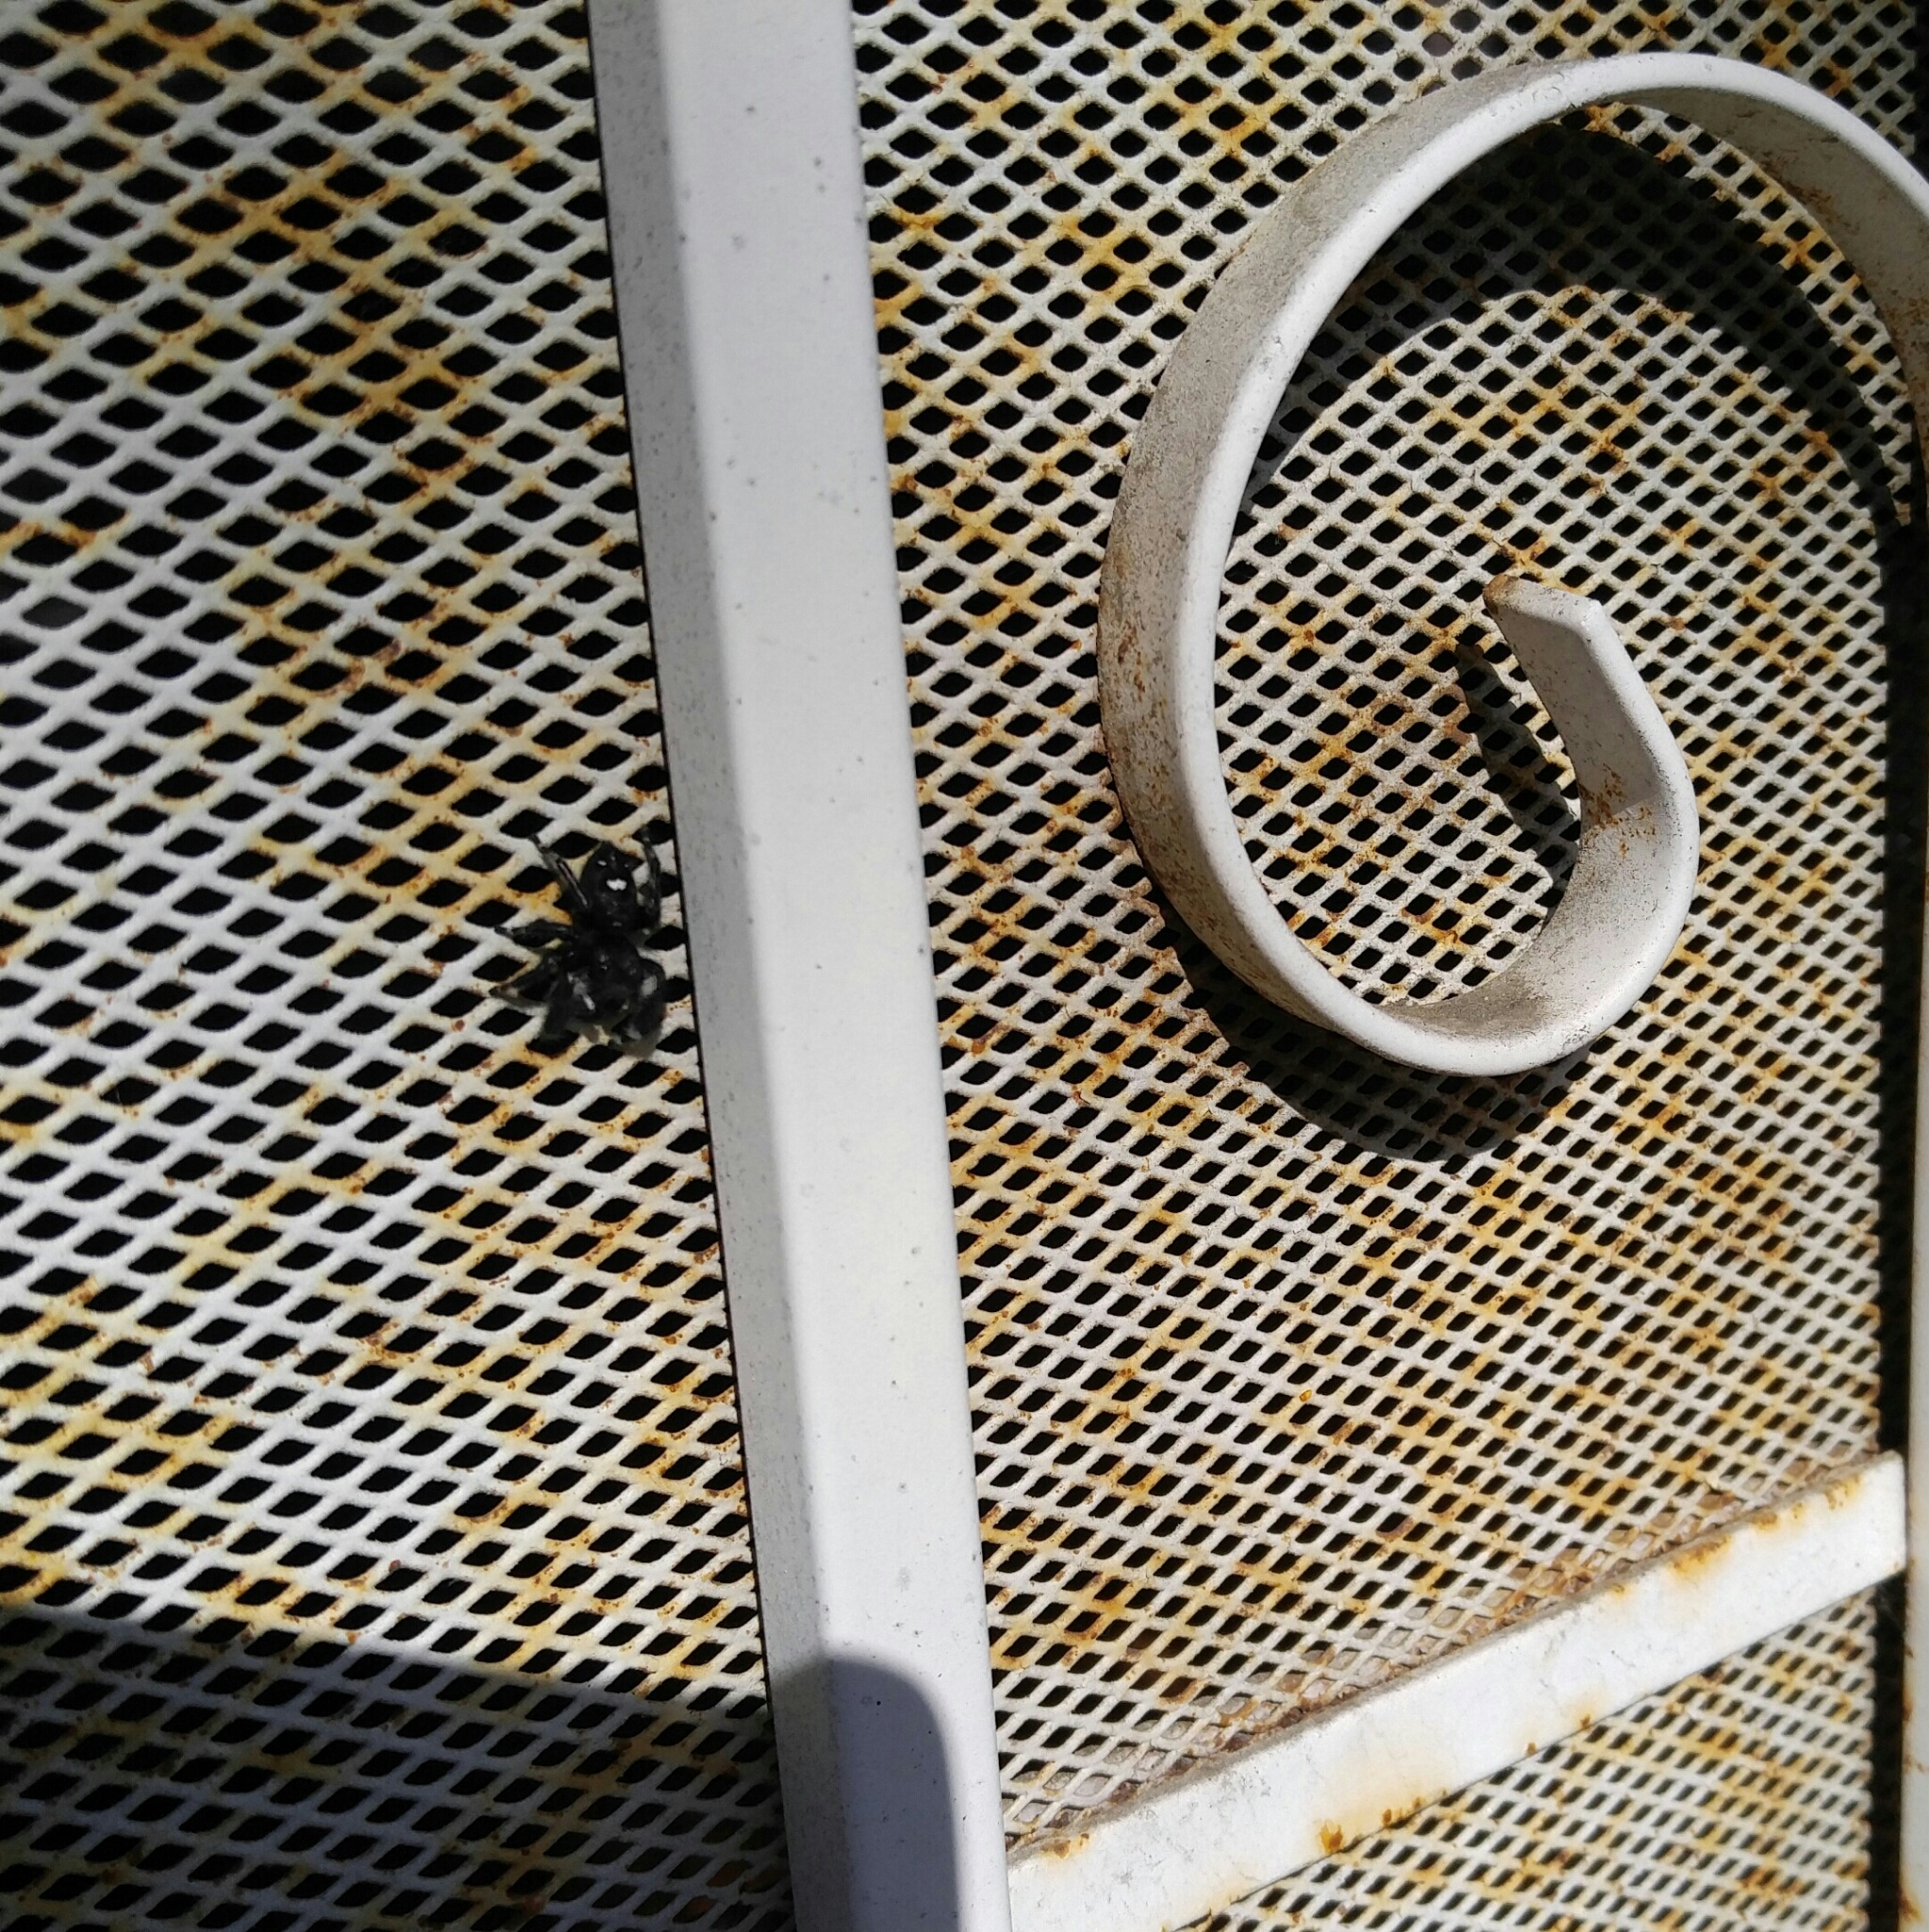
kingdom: Animalia
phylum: Arthropoda
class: Arachnida
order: Araneae
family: Salticidae
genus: Phidippus
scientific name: Phidippus audax
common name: Bold jumper
